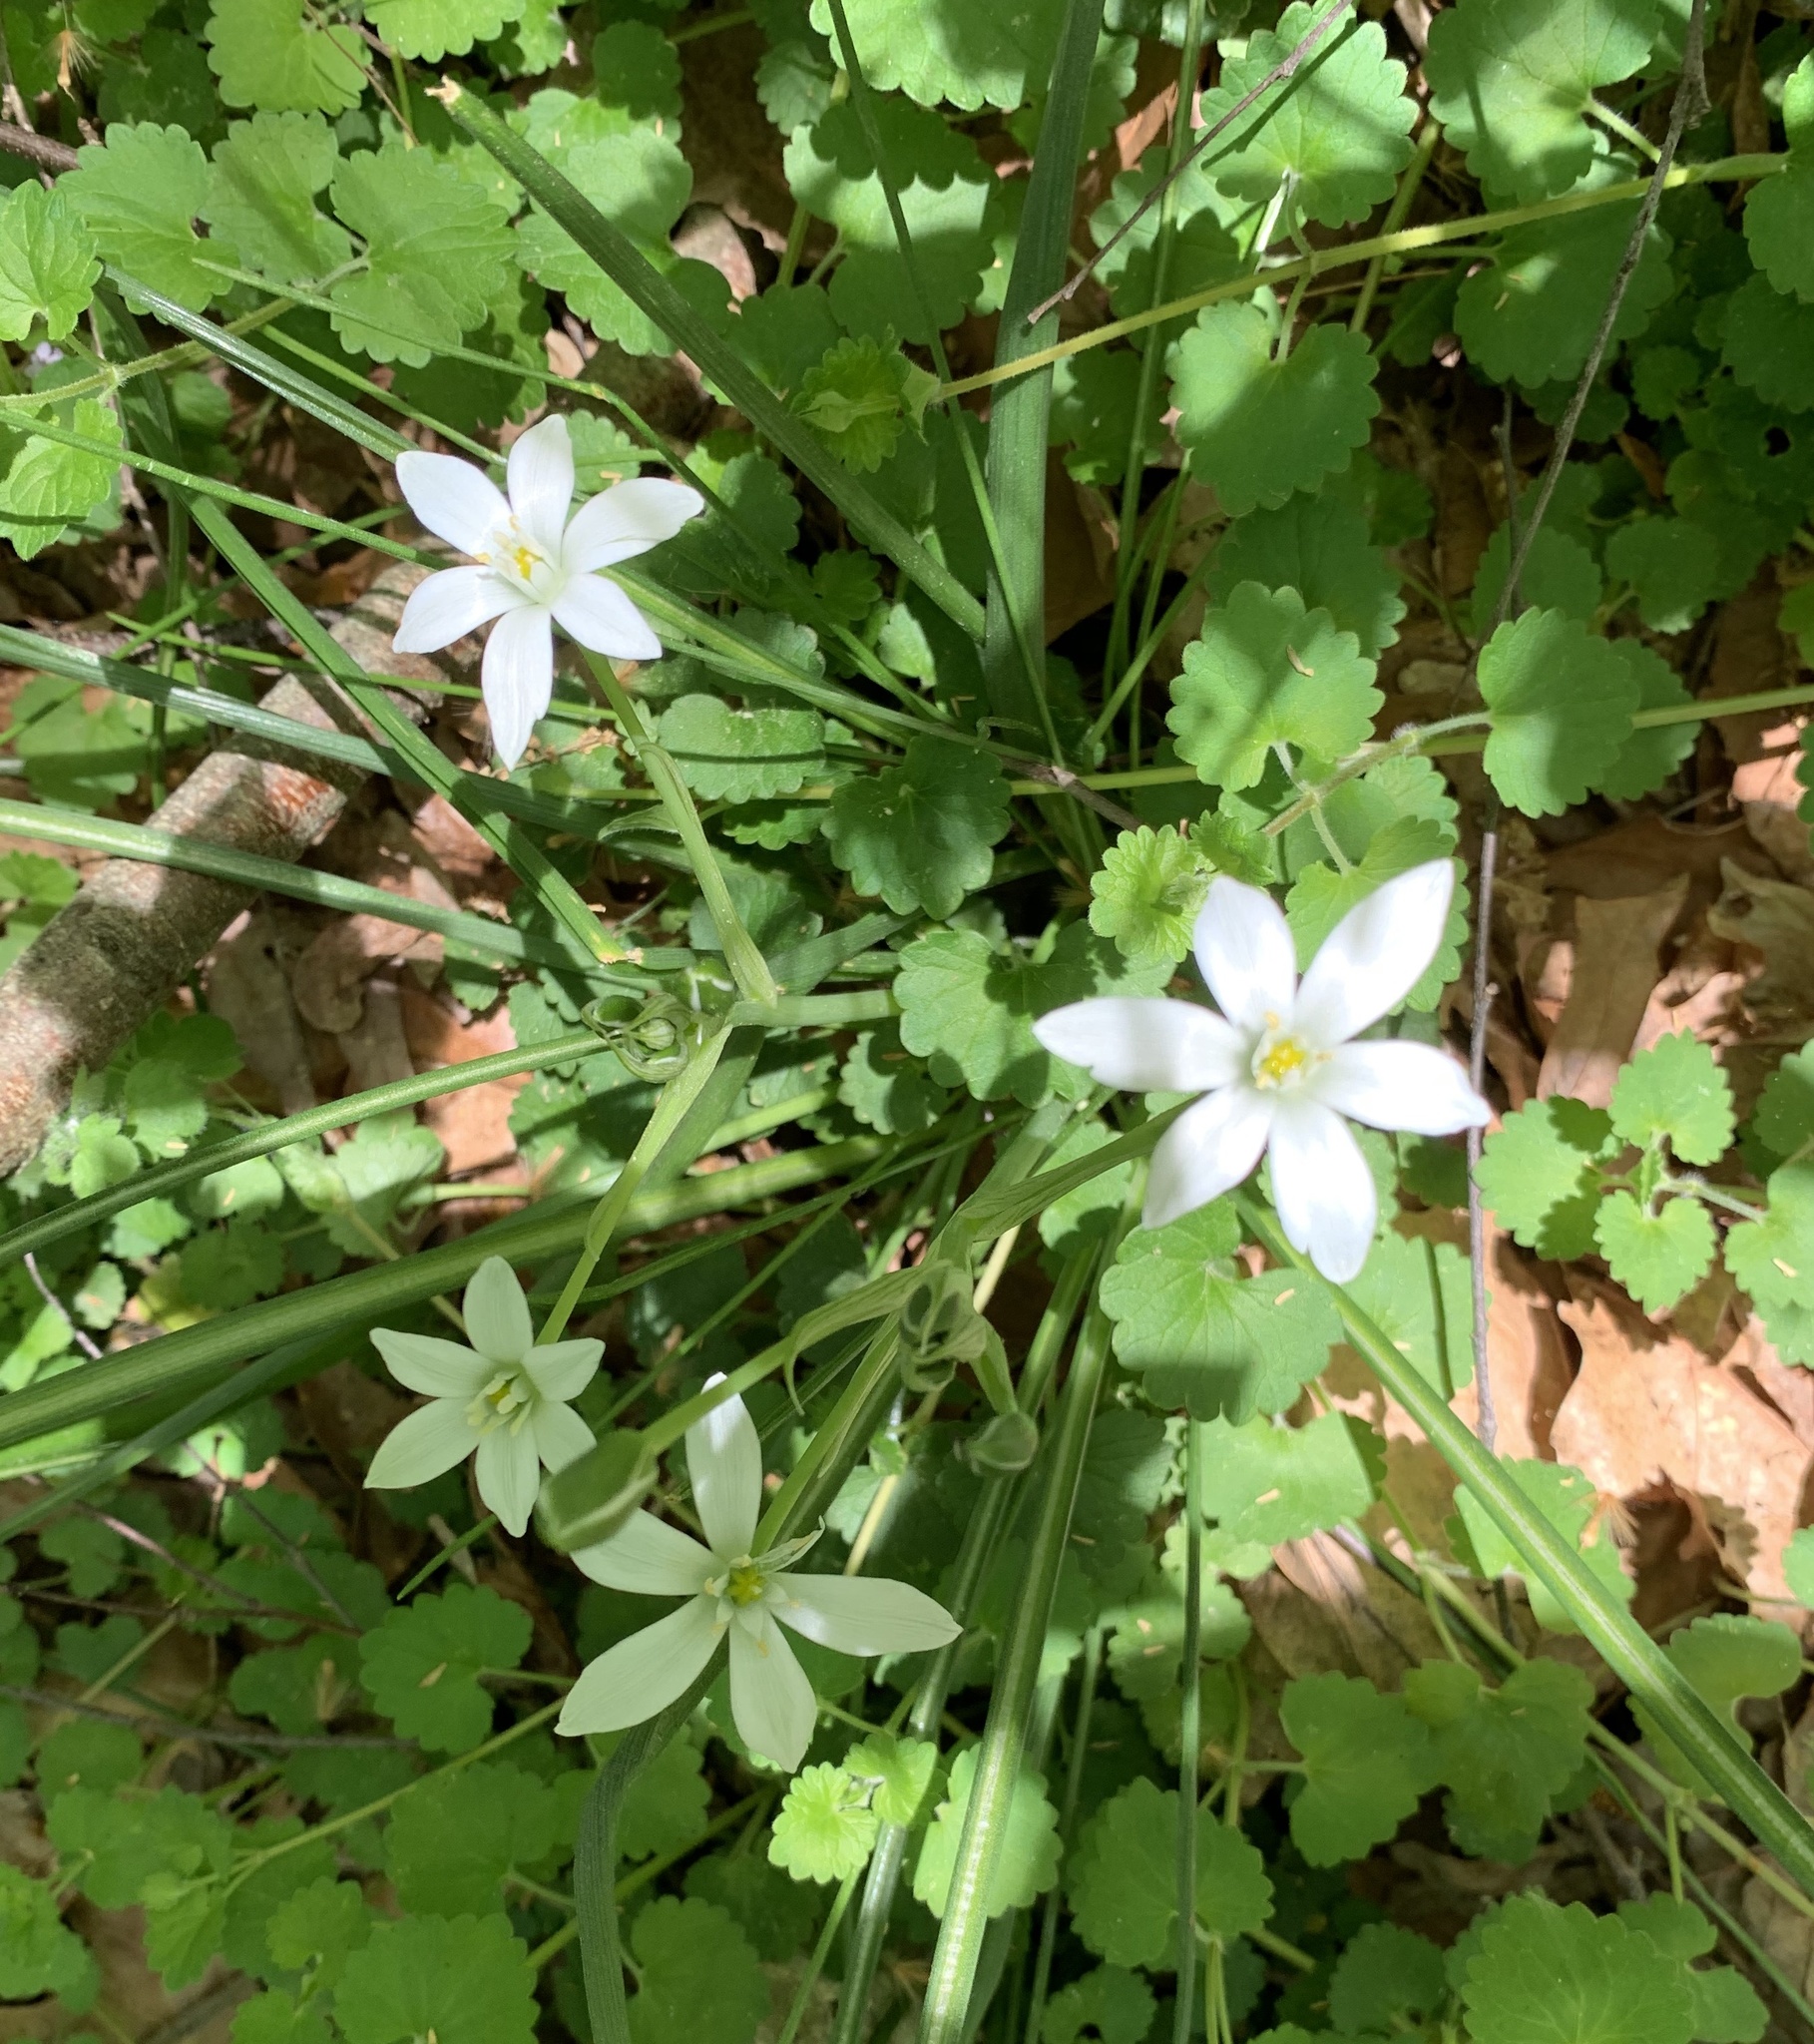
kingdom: Plantae
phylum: Tracheophyta
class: Liliopsida
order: Asparagales
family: Asparagaceae
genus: Ornithogalum
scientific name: Ornithogalum umbellatum
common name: Garden star-of-bethlehem
